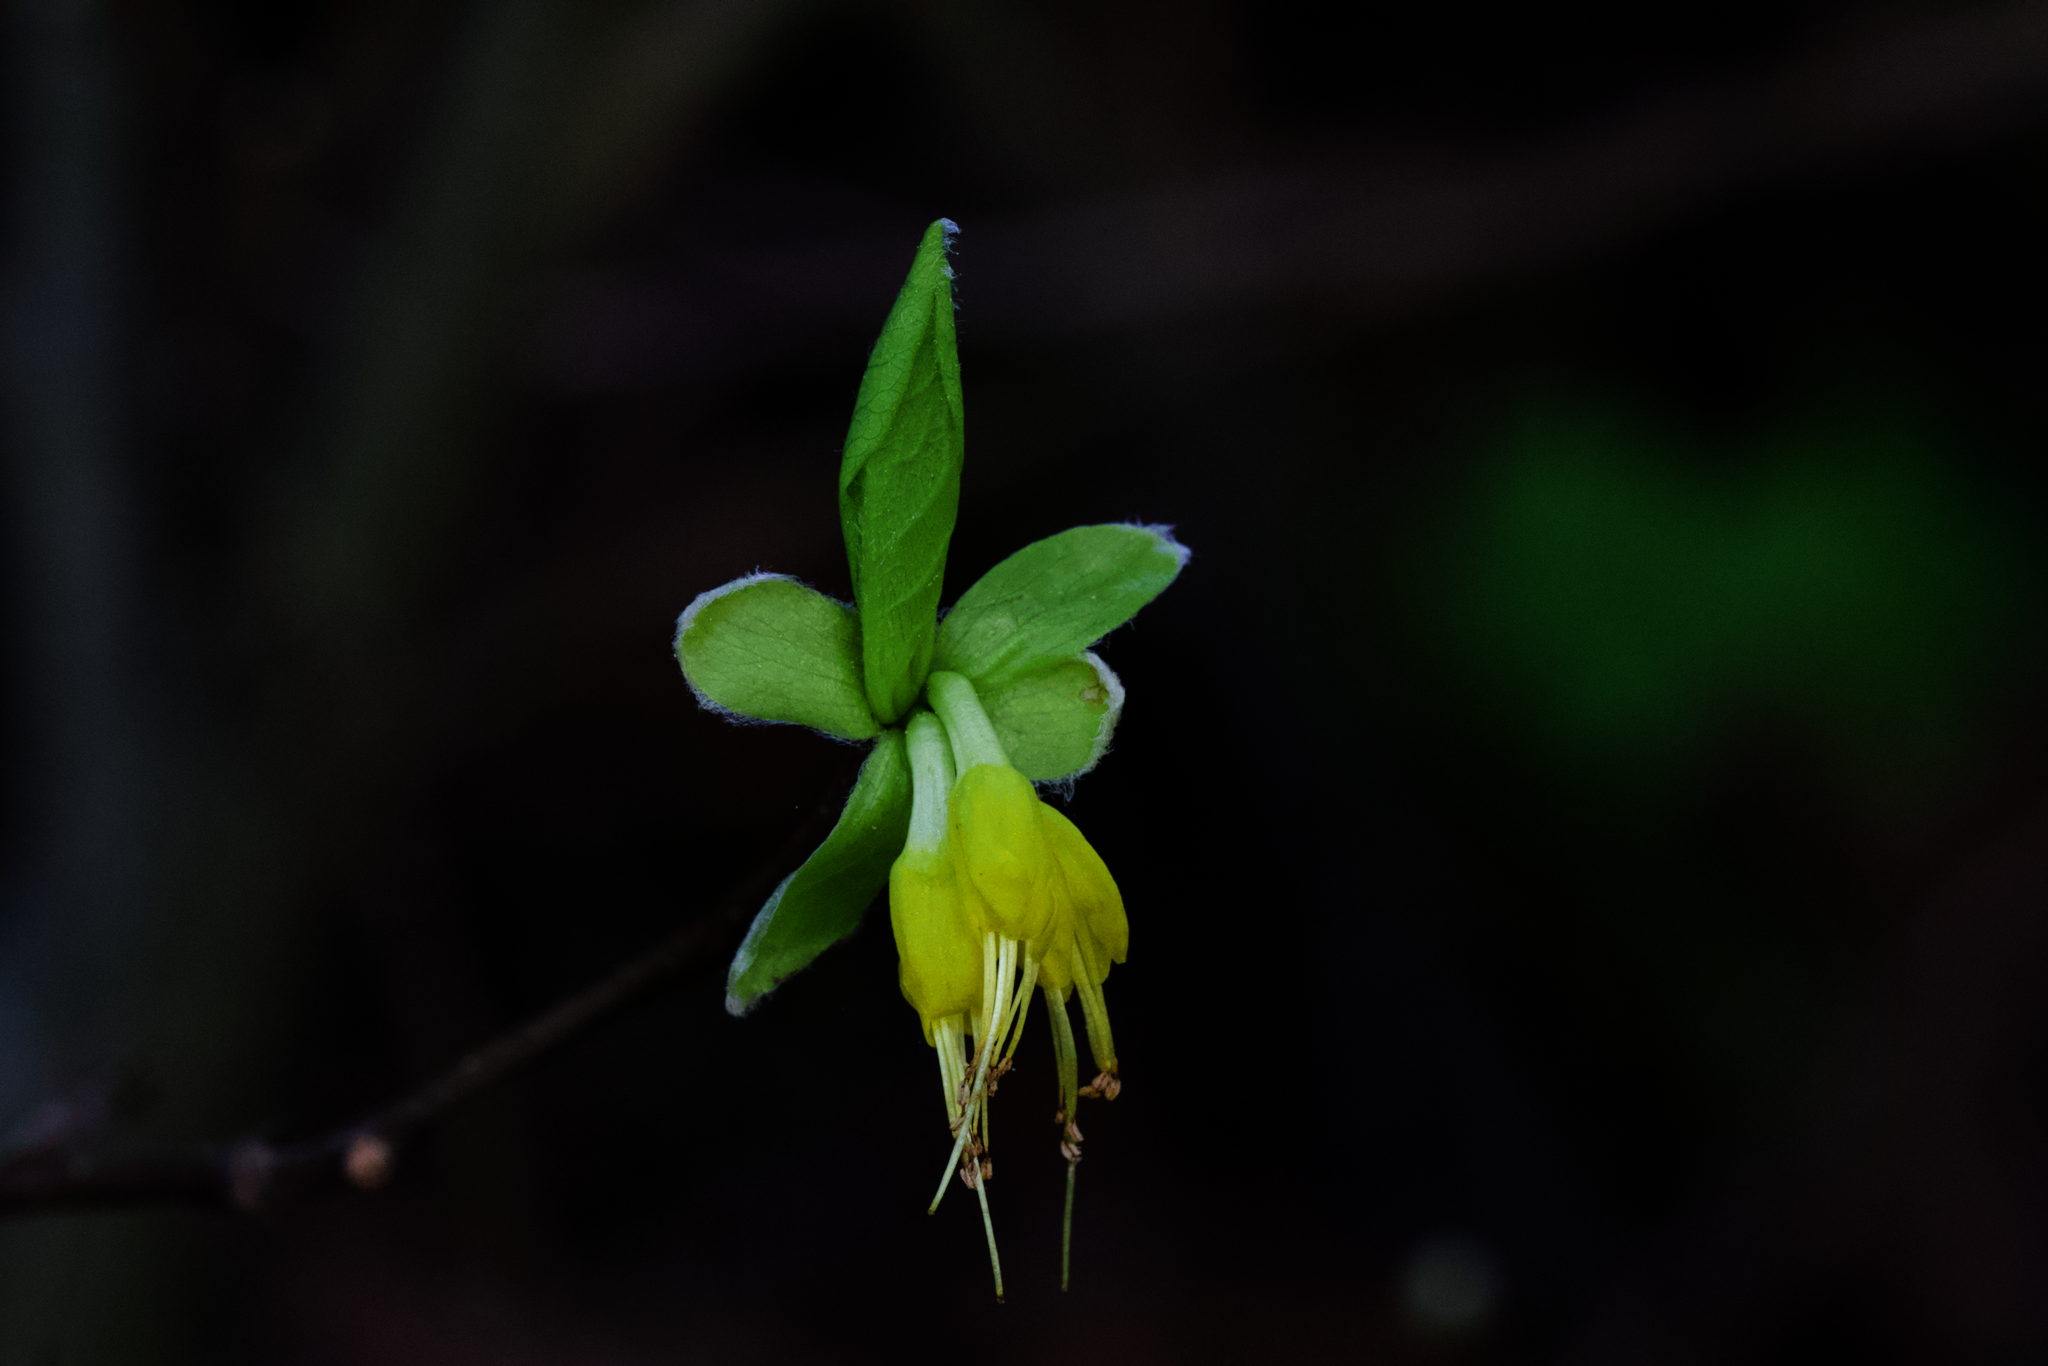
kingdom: Plantae
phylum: Tracheophyta
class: Magnoliopsida
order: Malvales
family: Thymelaeaceae
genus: Dirca
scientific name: Dirca occidentalis
